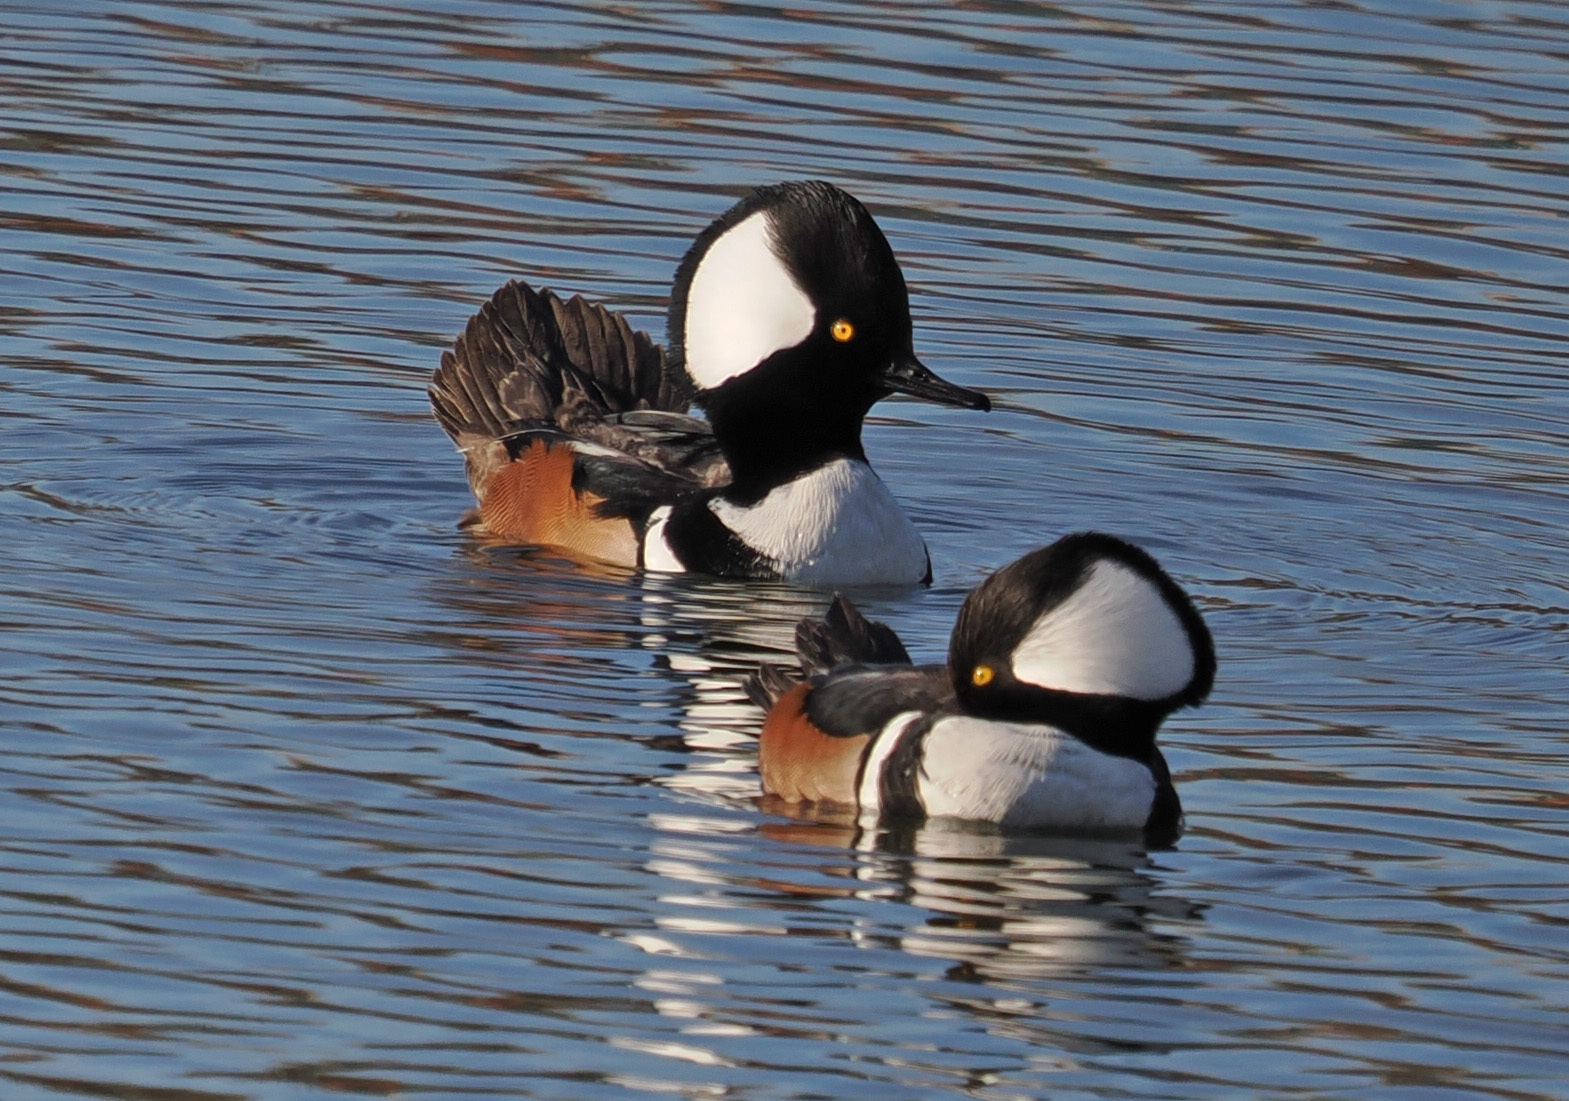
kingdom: Animalia
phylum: Chordata
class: Aves
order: Anseriformes
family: Anatidae
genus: Lophodytes
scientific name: Lophodytes cucullatus
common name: Hooded merganser
